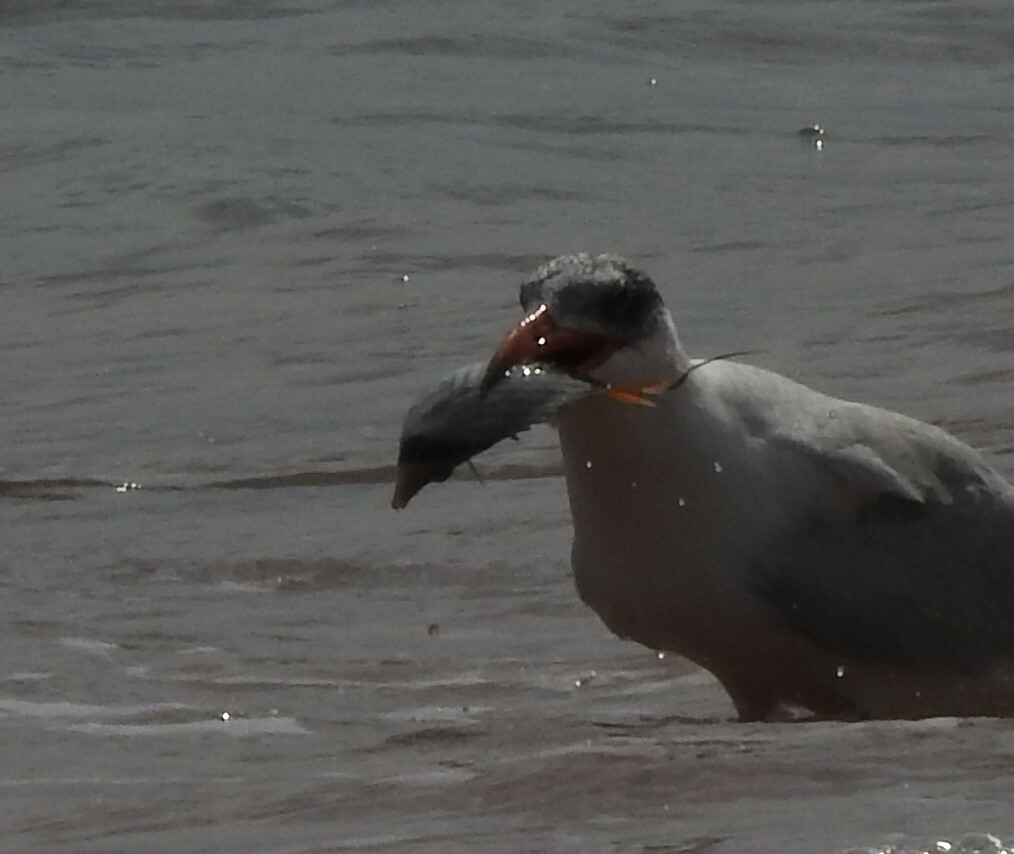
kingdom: Animalia
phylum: Chordata
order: Perciformes
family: Chaetodontidae
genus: Chaetodon
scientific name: Chaetodon auriga
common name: Threadfin butterflyfish
